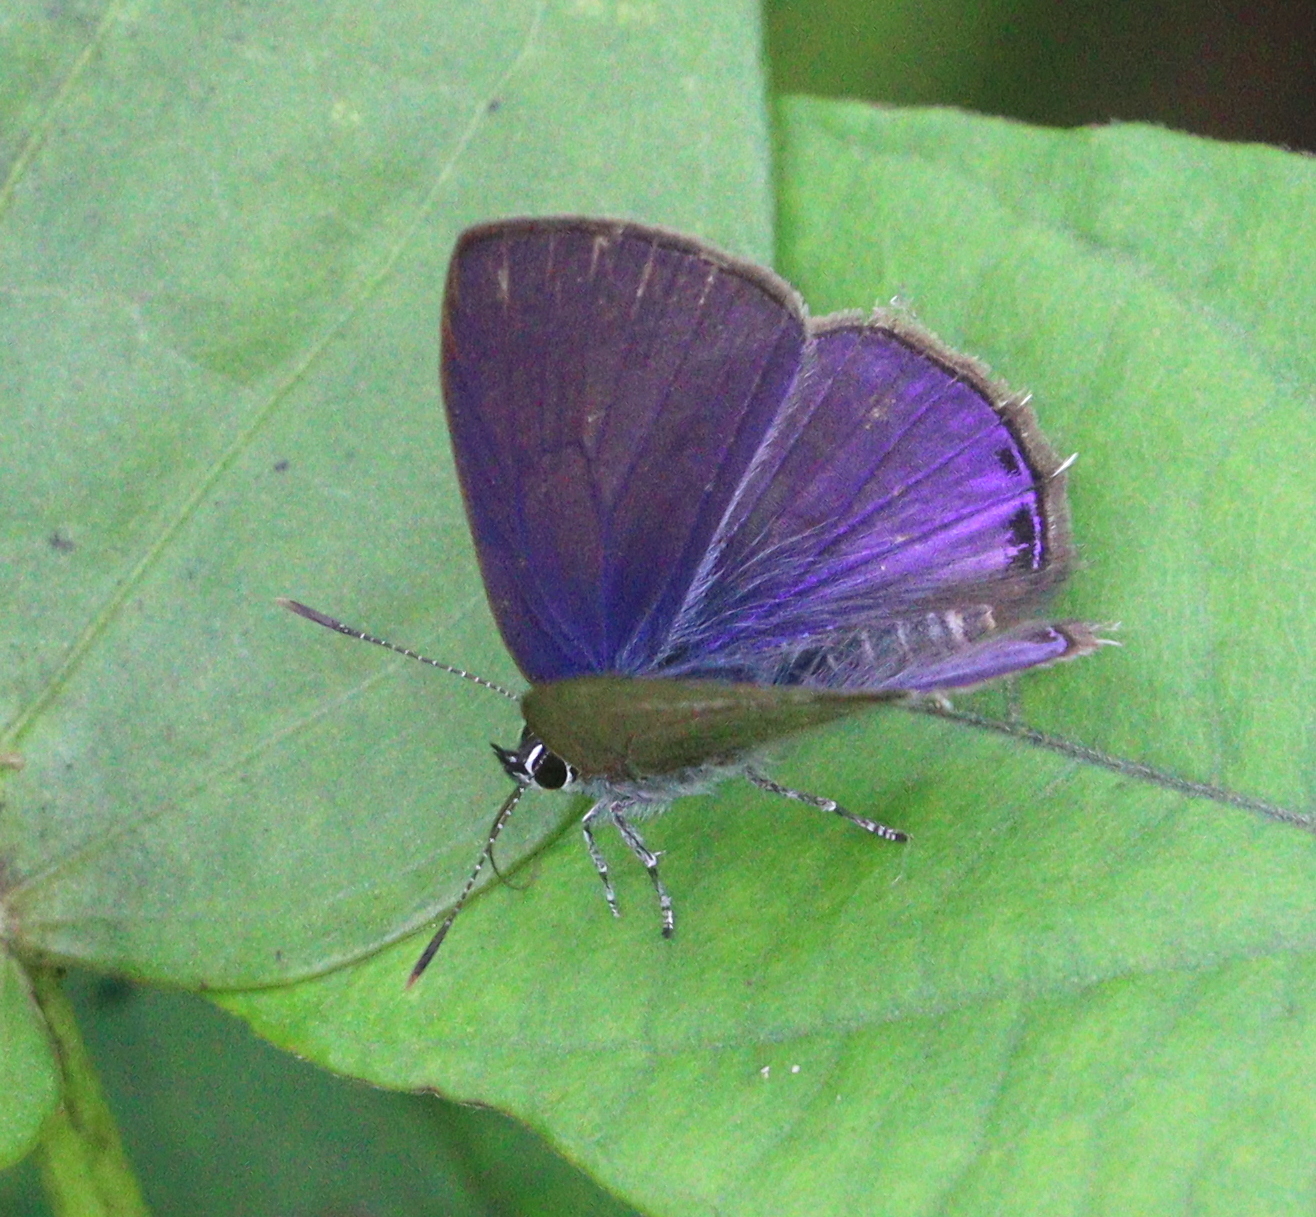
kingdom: Animalia
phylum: Arthropoda
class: Insecta
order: Lepidoptera
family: Lycaenidae
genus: Anthene
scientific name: Anthene emolus
